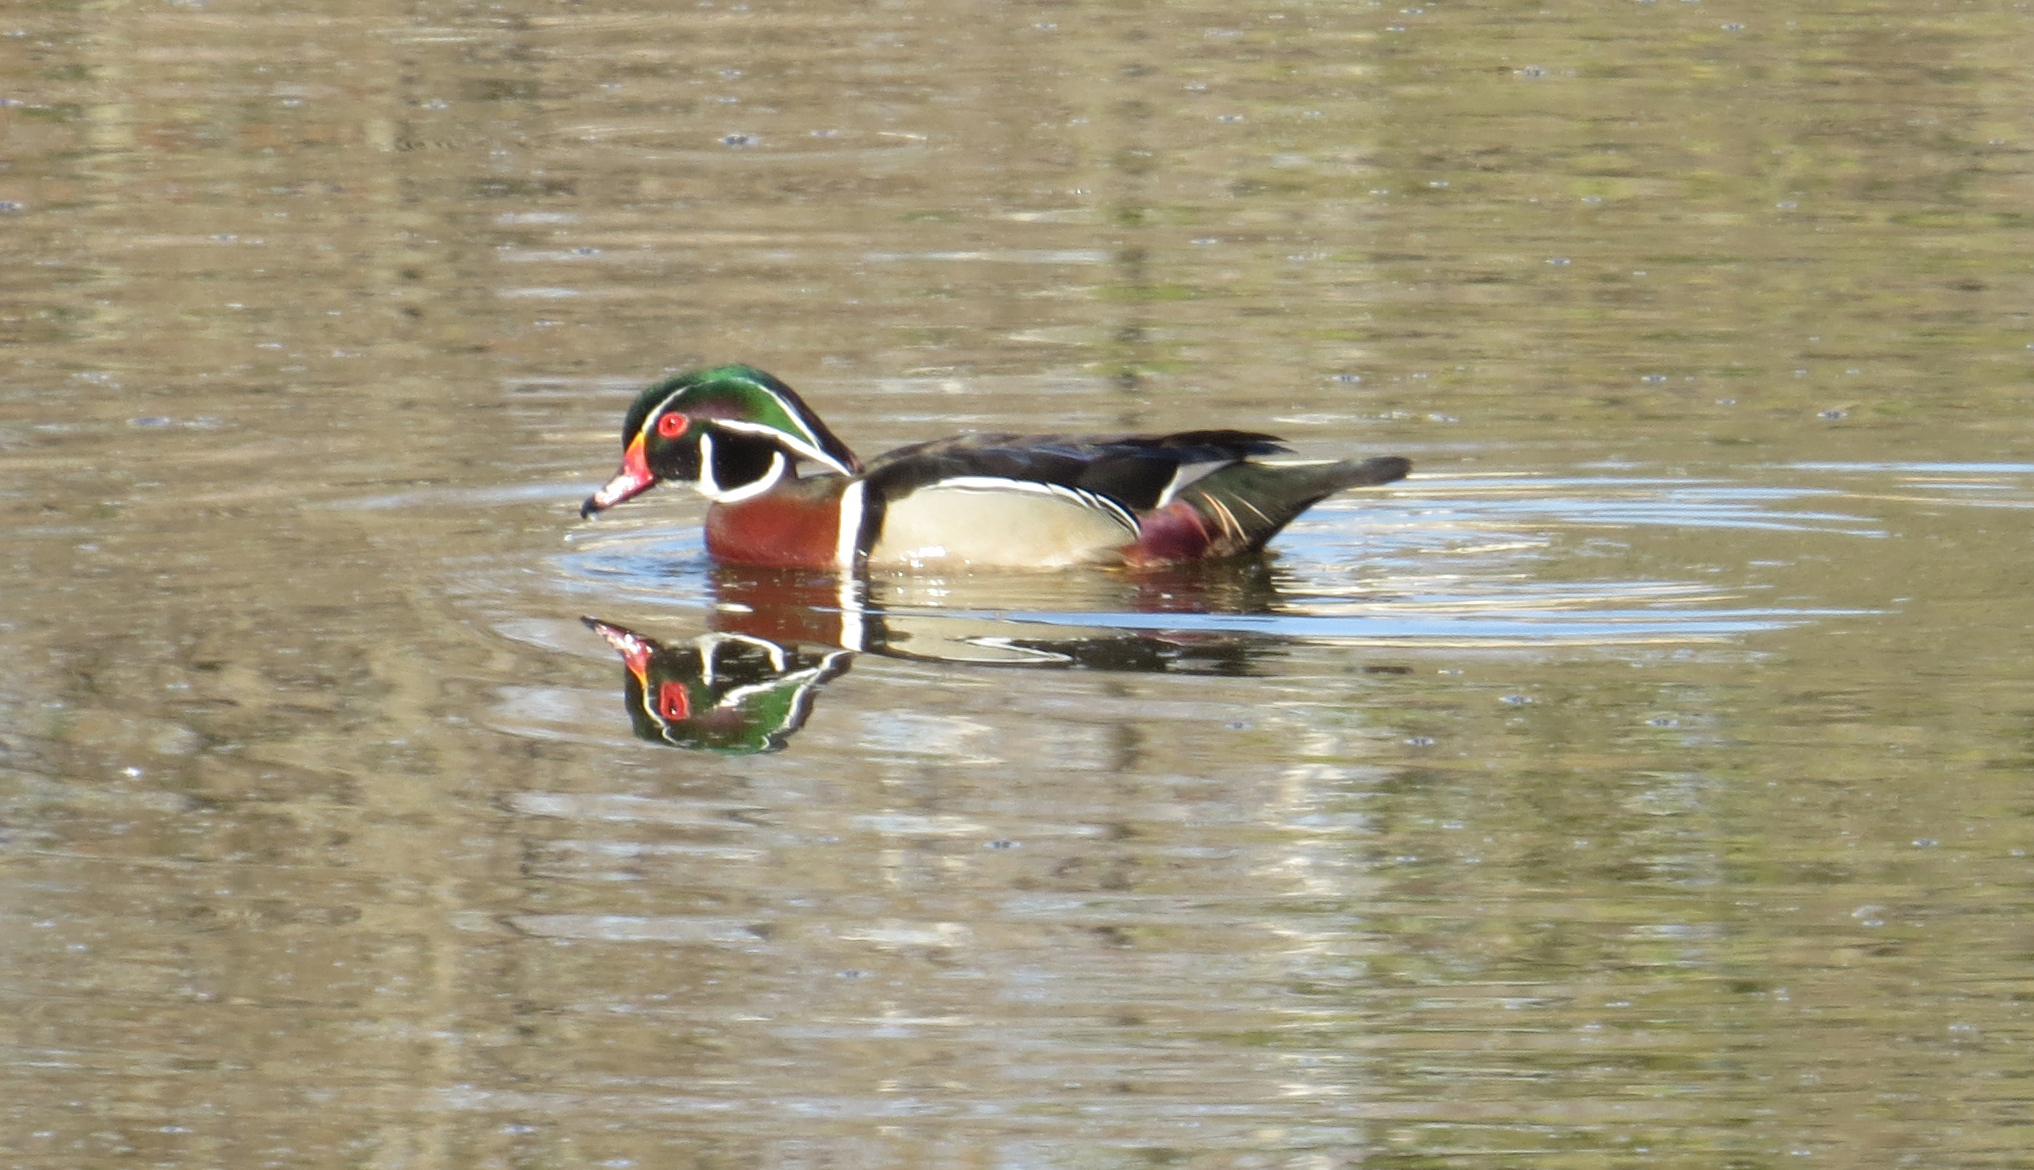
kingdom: Animalia
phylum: Chordata
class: Aves
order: Anseriformes
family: Anatidae
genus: Aix
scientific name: Aix sponsa
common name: Wood duck
